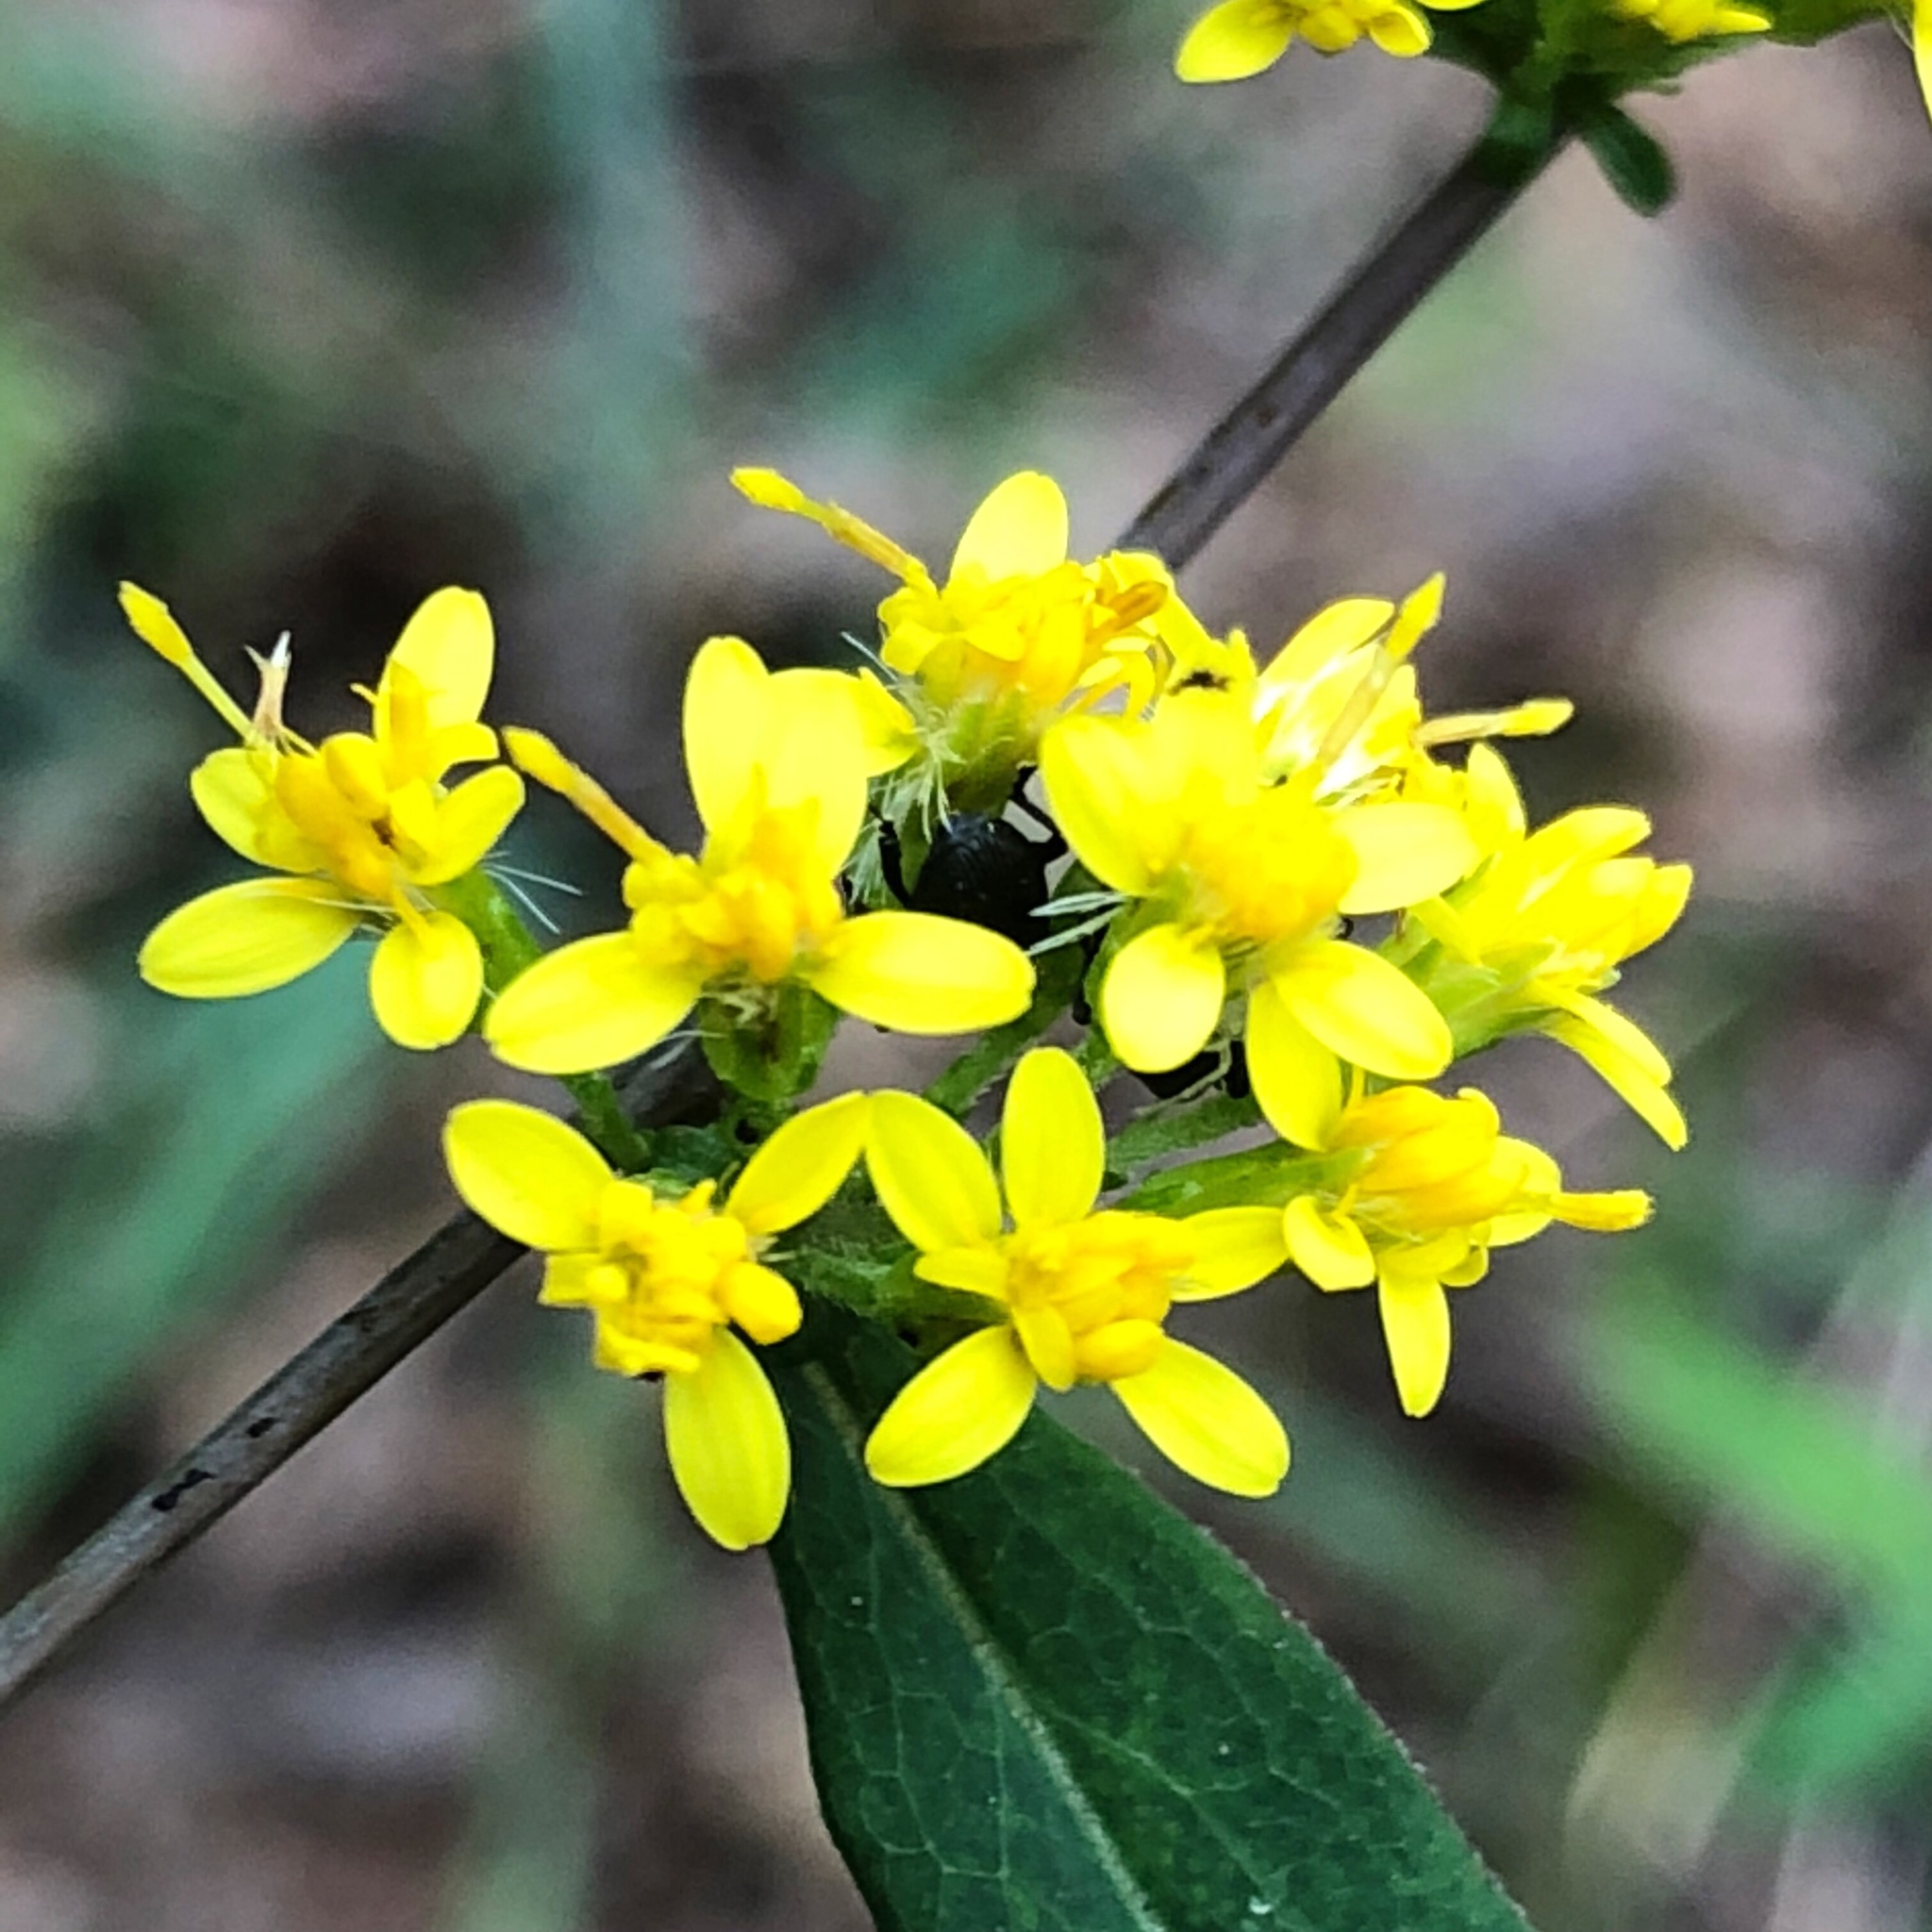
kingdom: Plantae
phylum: Tracheophyta
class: Magnoliopsida
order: Asterales
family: Asteraceae
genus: Solidago
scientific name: Solidago caesia
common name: Woodland goldenrod
